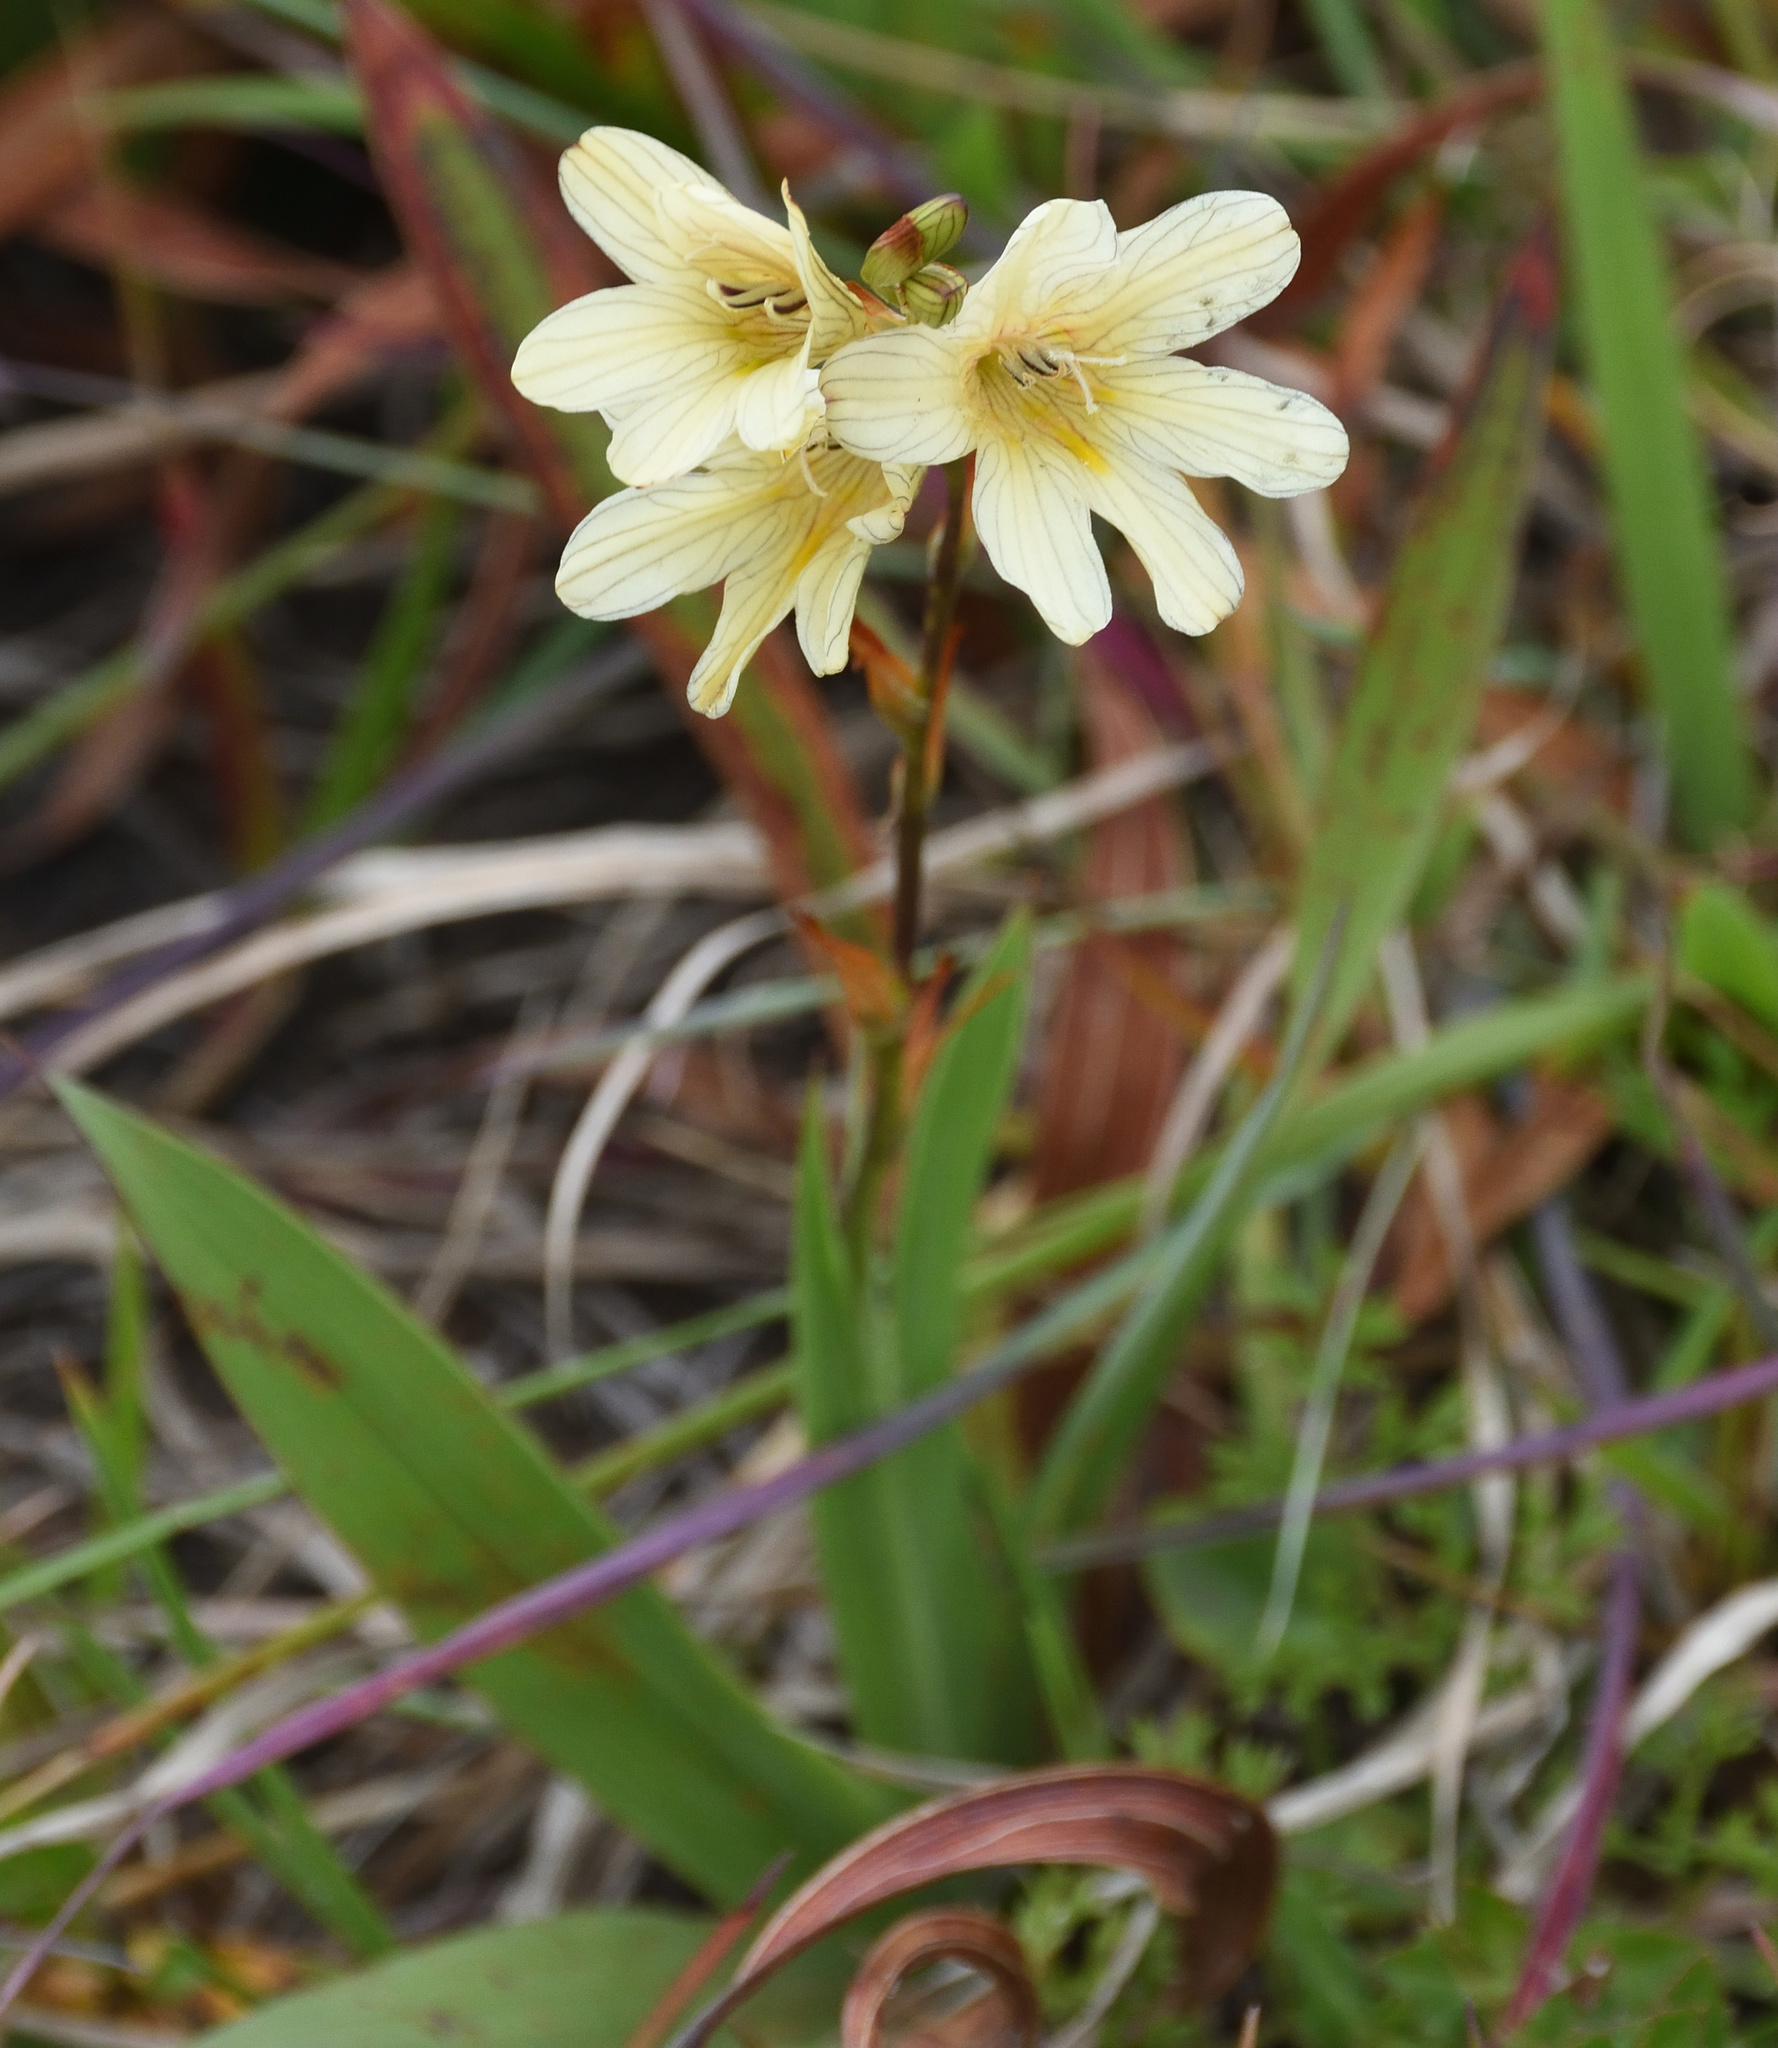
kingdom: Plantae
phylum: Tracheophyta
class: Liliopsida
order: Asparagales
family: Iridaceae
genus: Tritonia
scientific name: Tritonia gladiolaris
